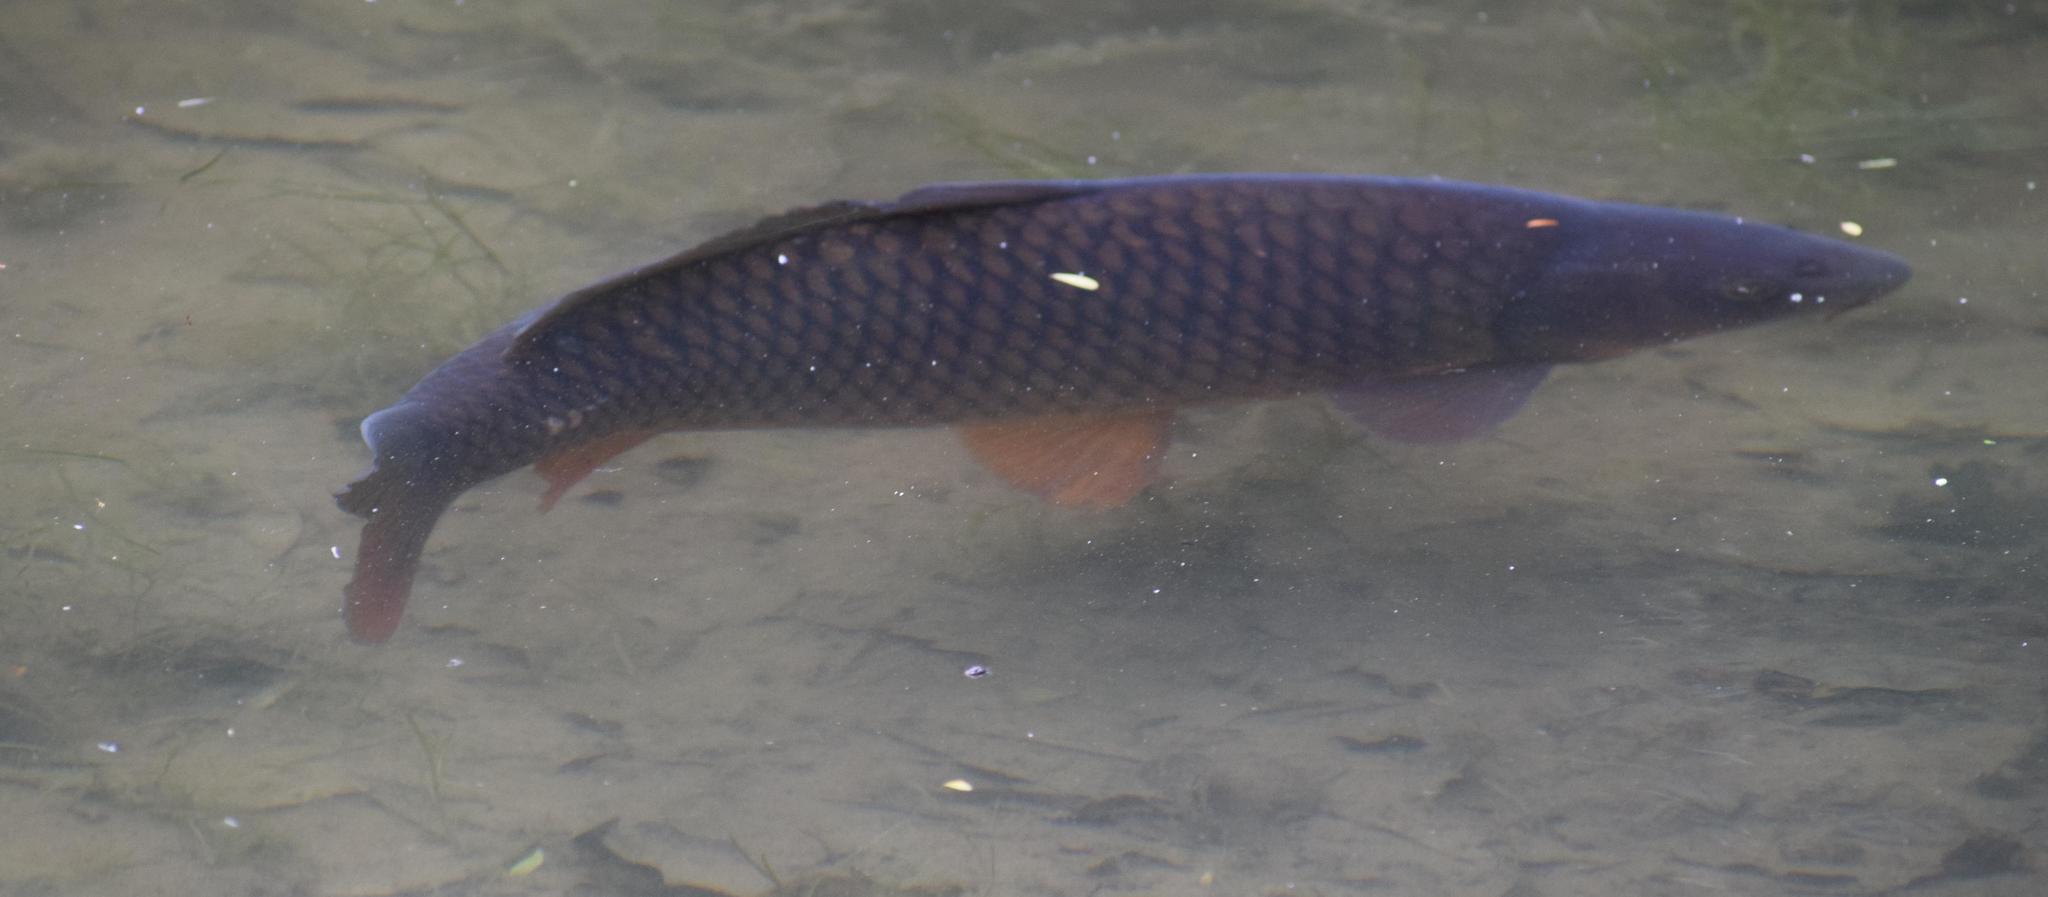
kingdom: Animalia
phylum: Chordata
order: Cypriniformes
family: Cyprinidae
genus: Cyprinus
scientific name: Cyprinus carpio
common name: Common carp
